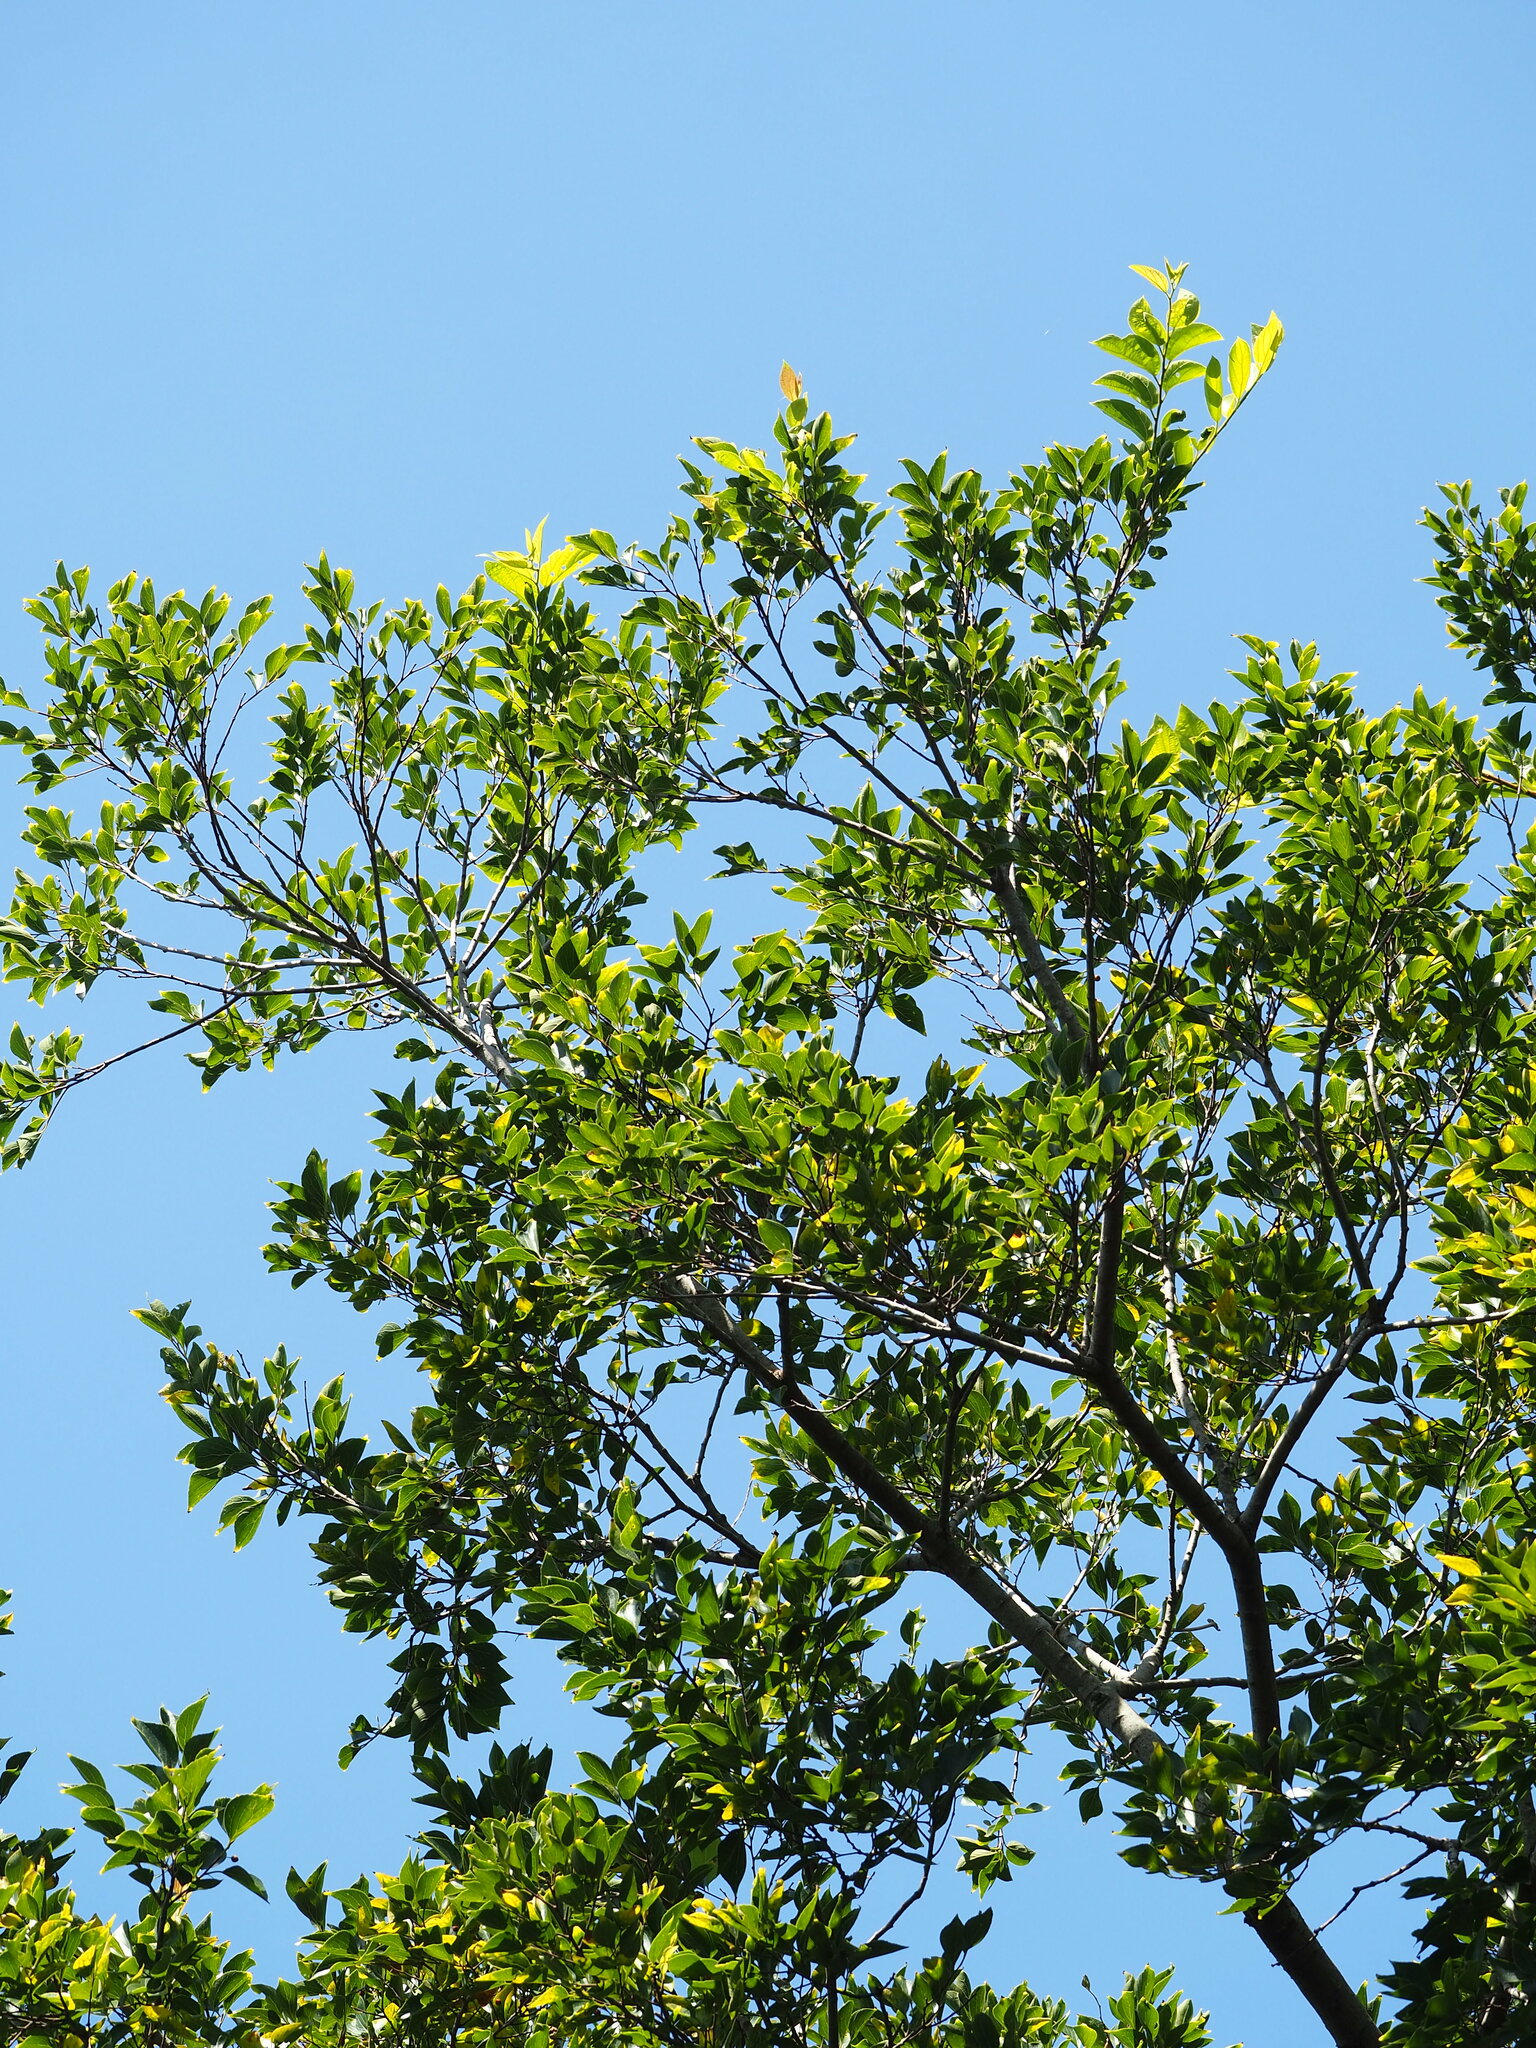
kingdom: Plantae
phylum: Tracheophyta
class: Magnoliopsida
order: Rosales
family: Cannabaceae
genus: Celtis
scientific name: Celtis sinensis
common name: Chinese hackberry
